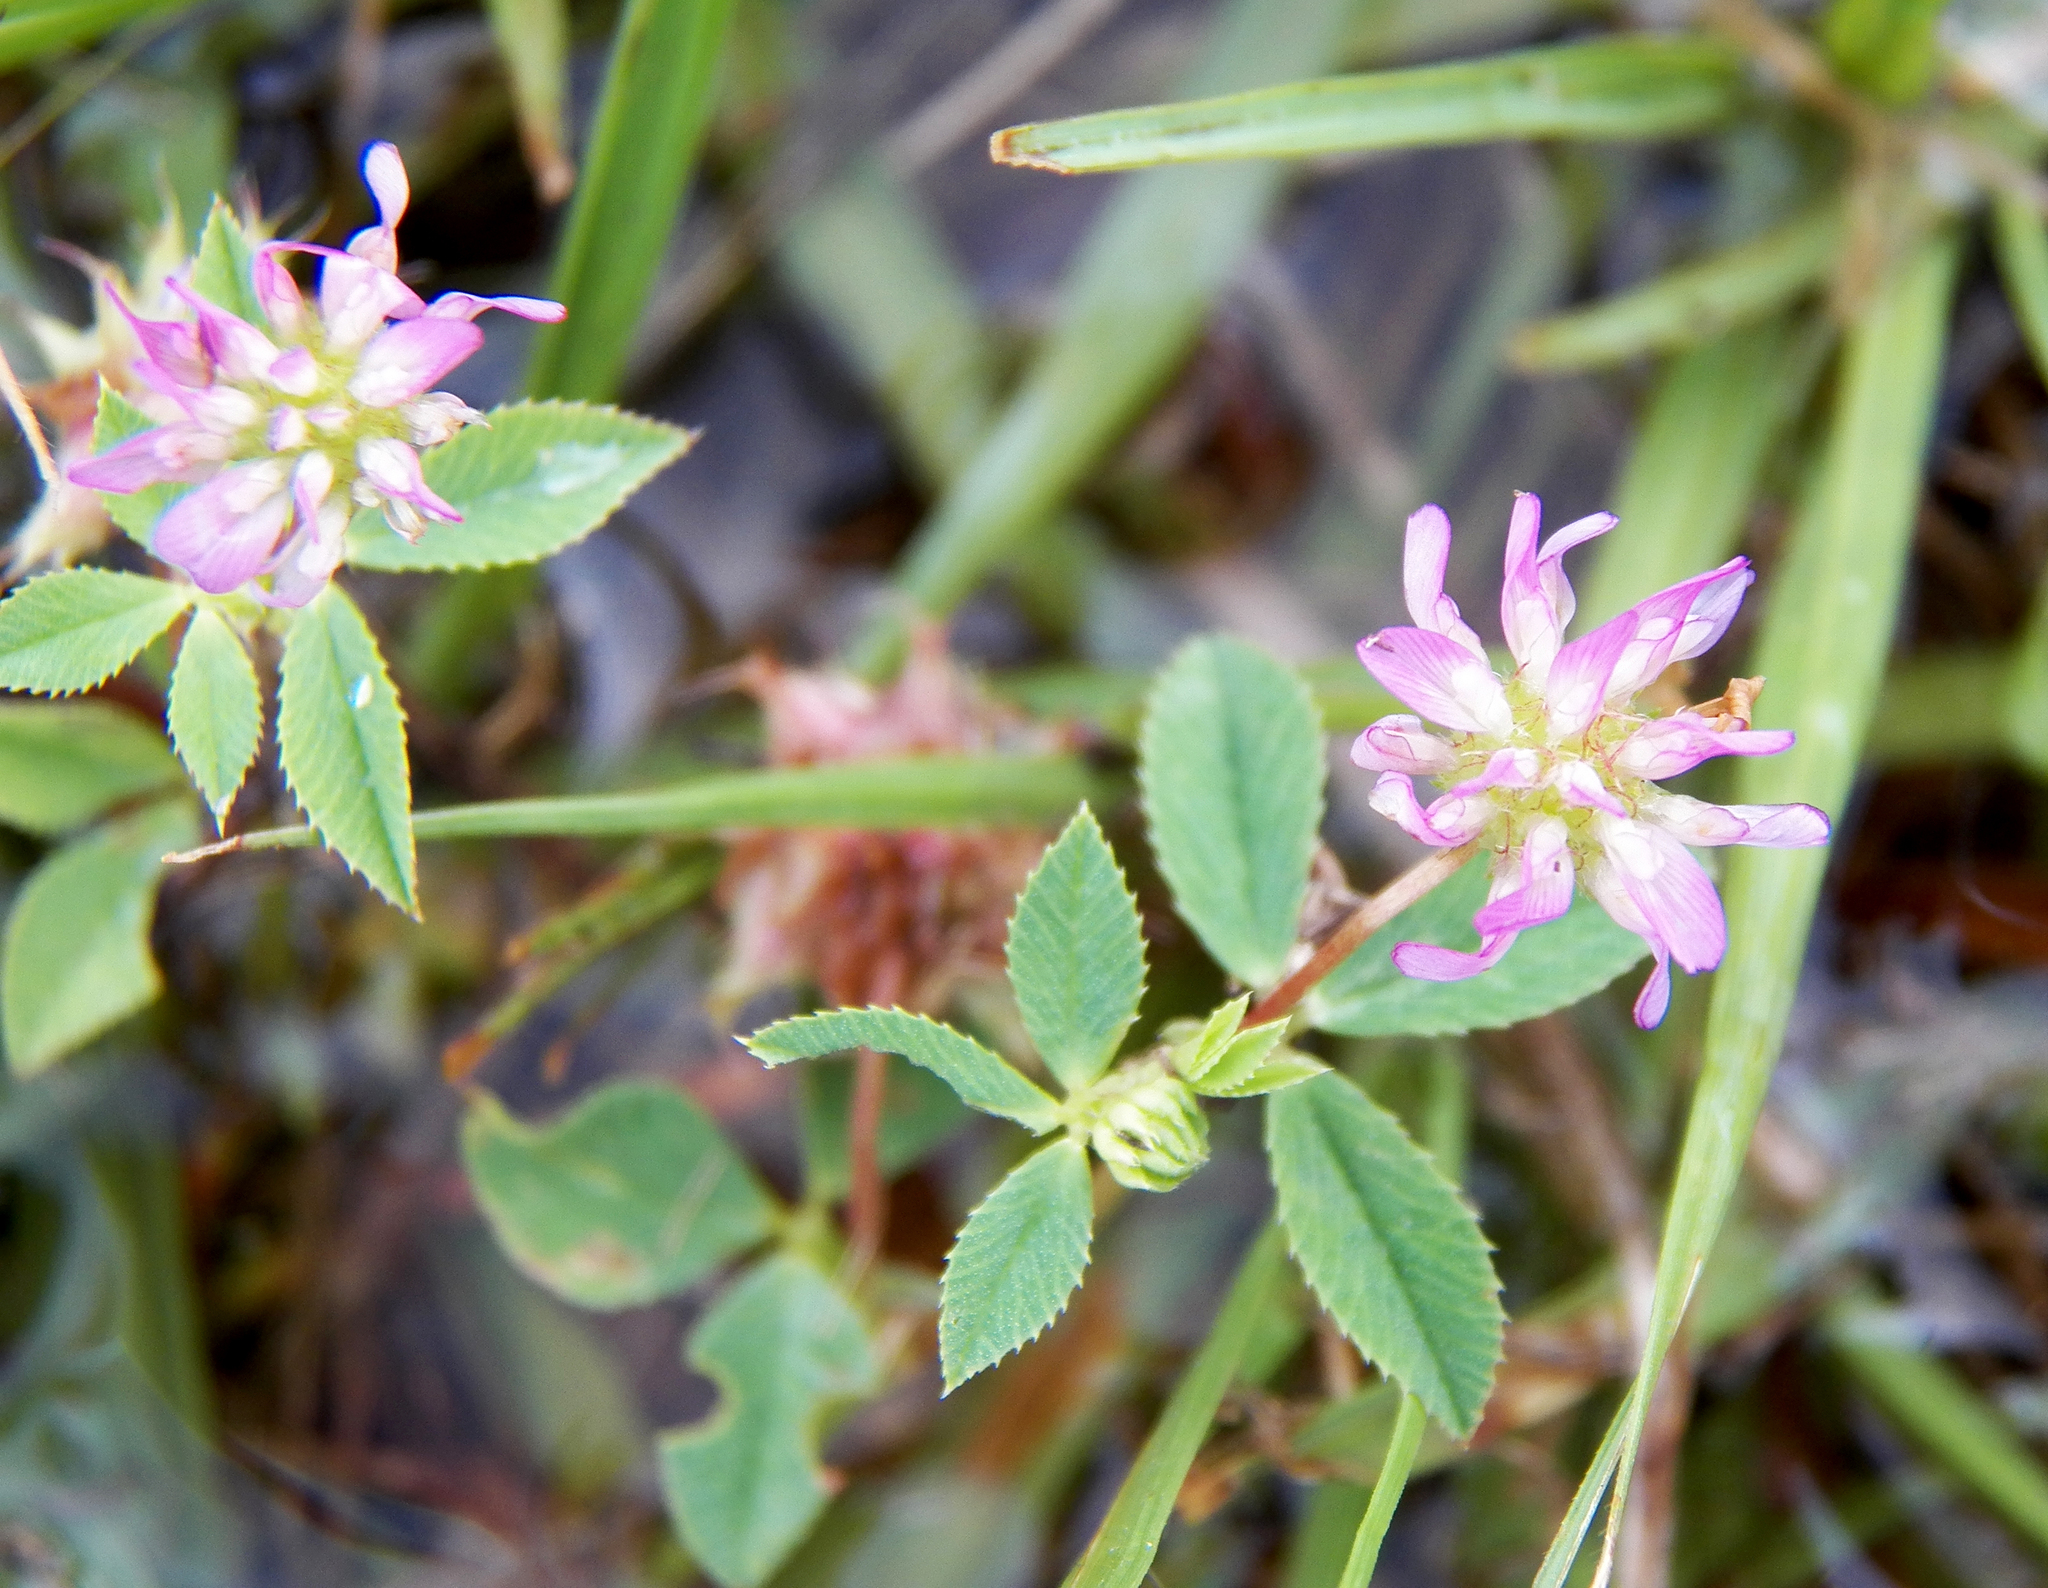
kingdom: Plantae
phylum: Tracheophyta
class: Magnoliopsida
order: Fabales
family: Fabaceae
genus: Trifolium
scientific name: Trifolium resupinatum
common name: Reversed clover
